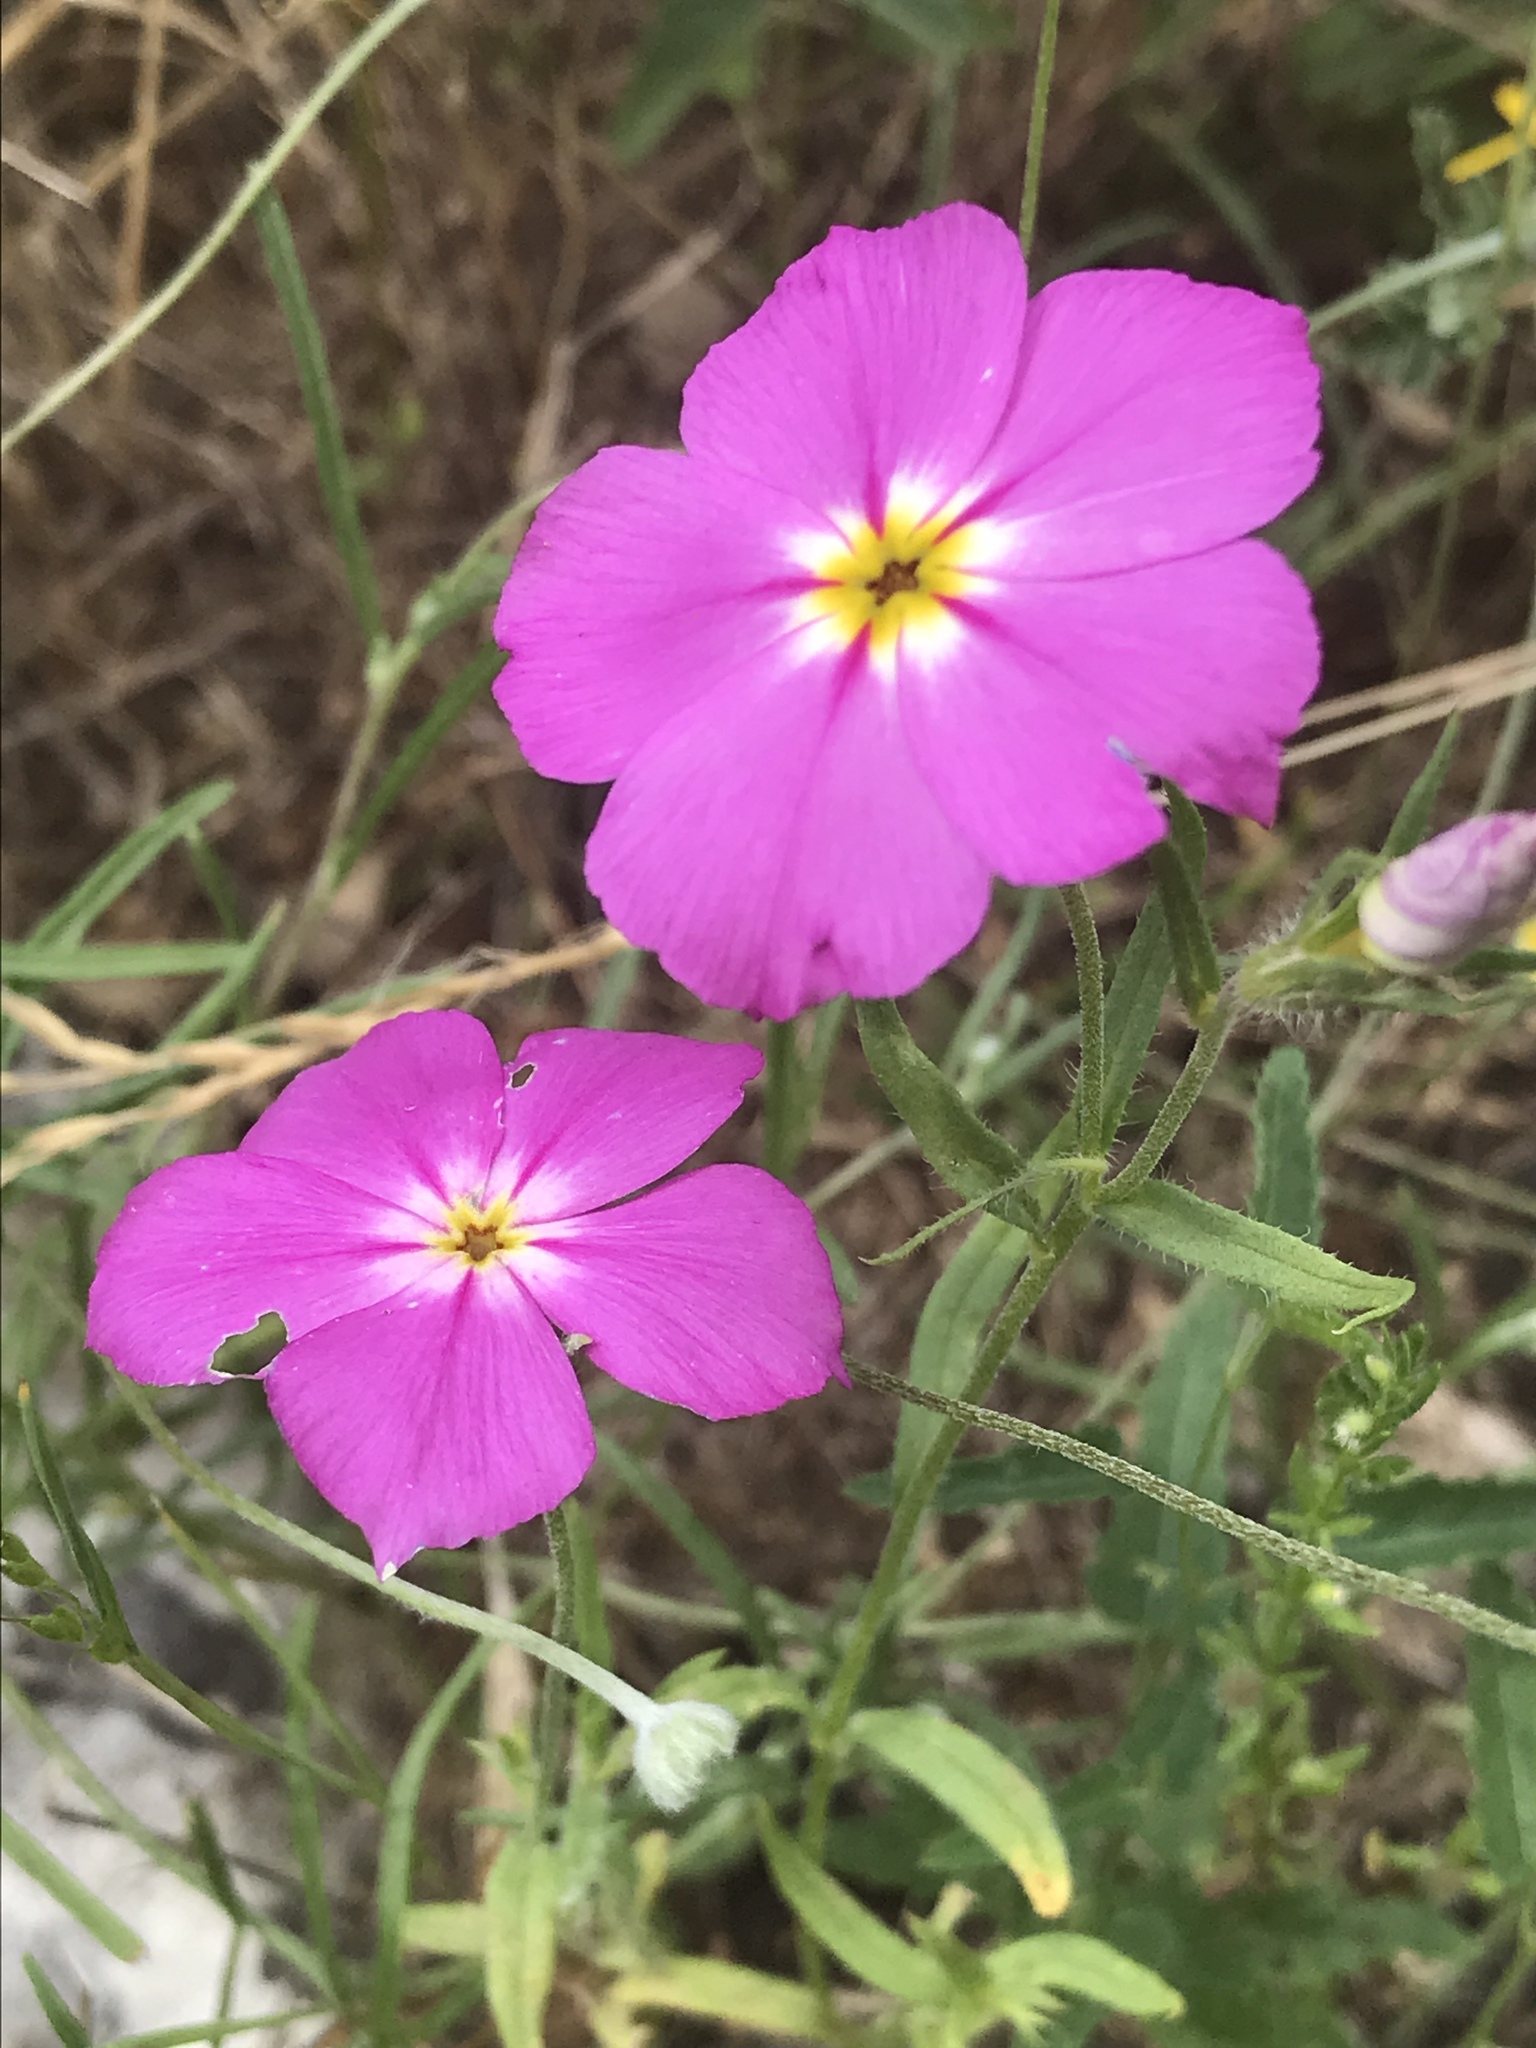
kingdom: Plantae
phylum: Tracheophyta
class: Magnoliopsida
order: Ericales
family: Polemoniaceae
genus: Phlox
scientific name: Phlox roemeriana
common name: Roemer's phlox
